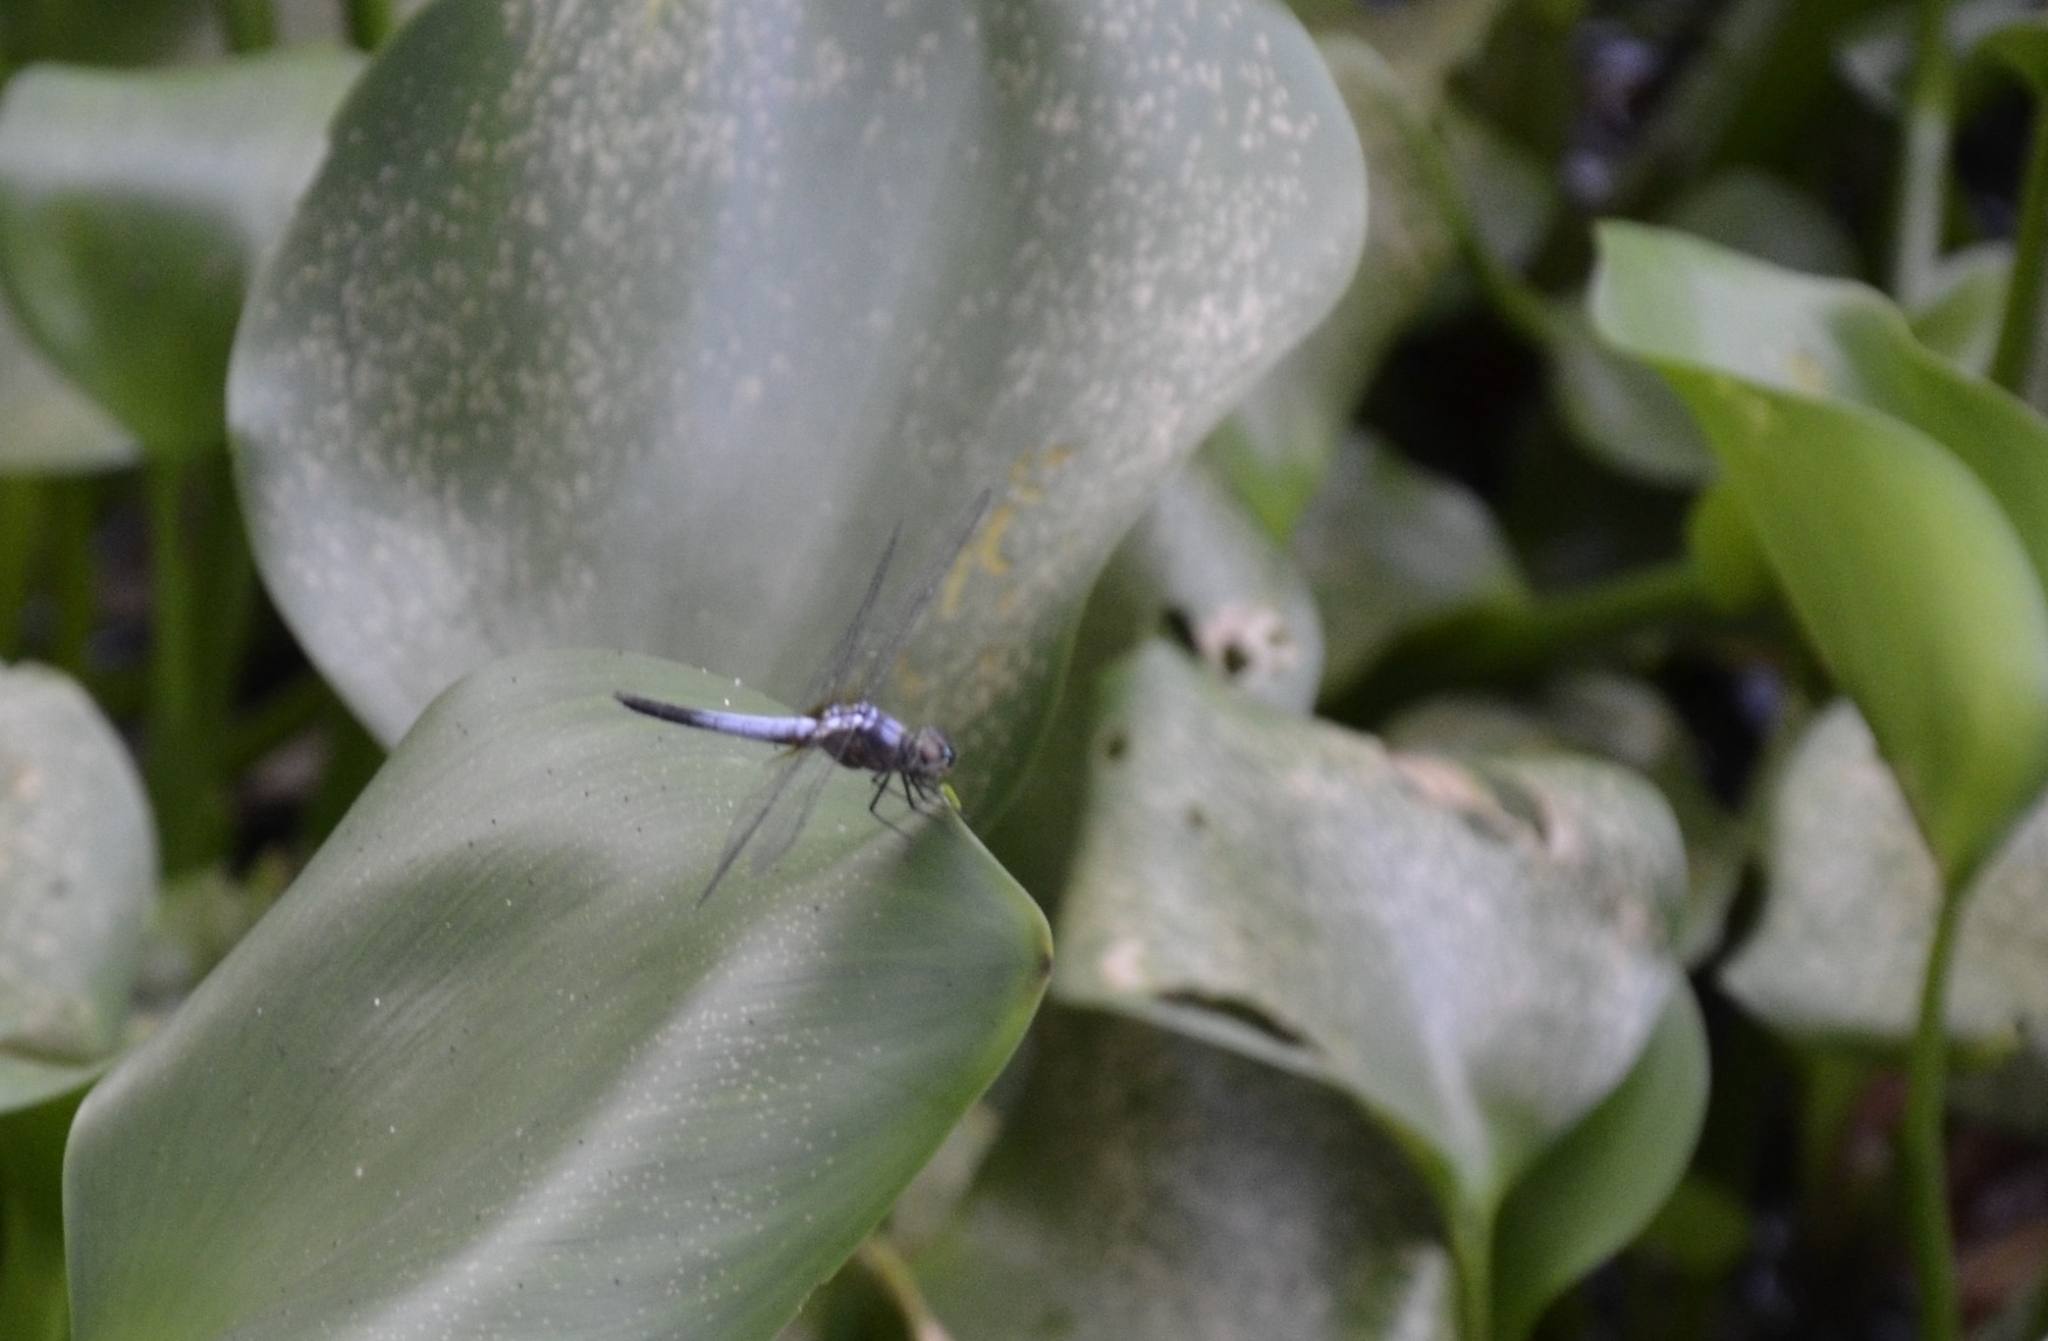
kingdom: Animalia
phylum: Arthropoda
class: Insecta
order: Odonata
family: Libellulidae
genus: Brachydiplax
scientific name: Brachydiplax chalybea
